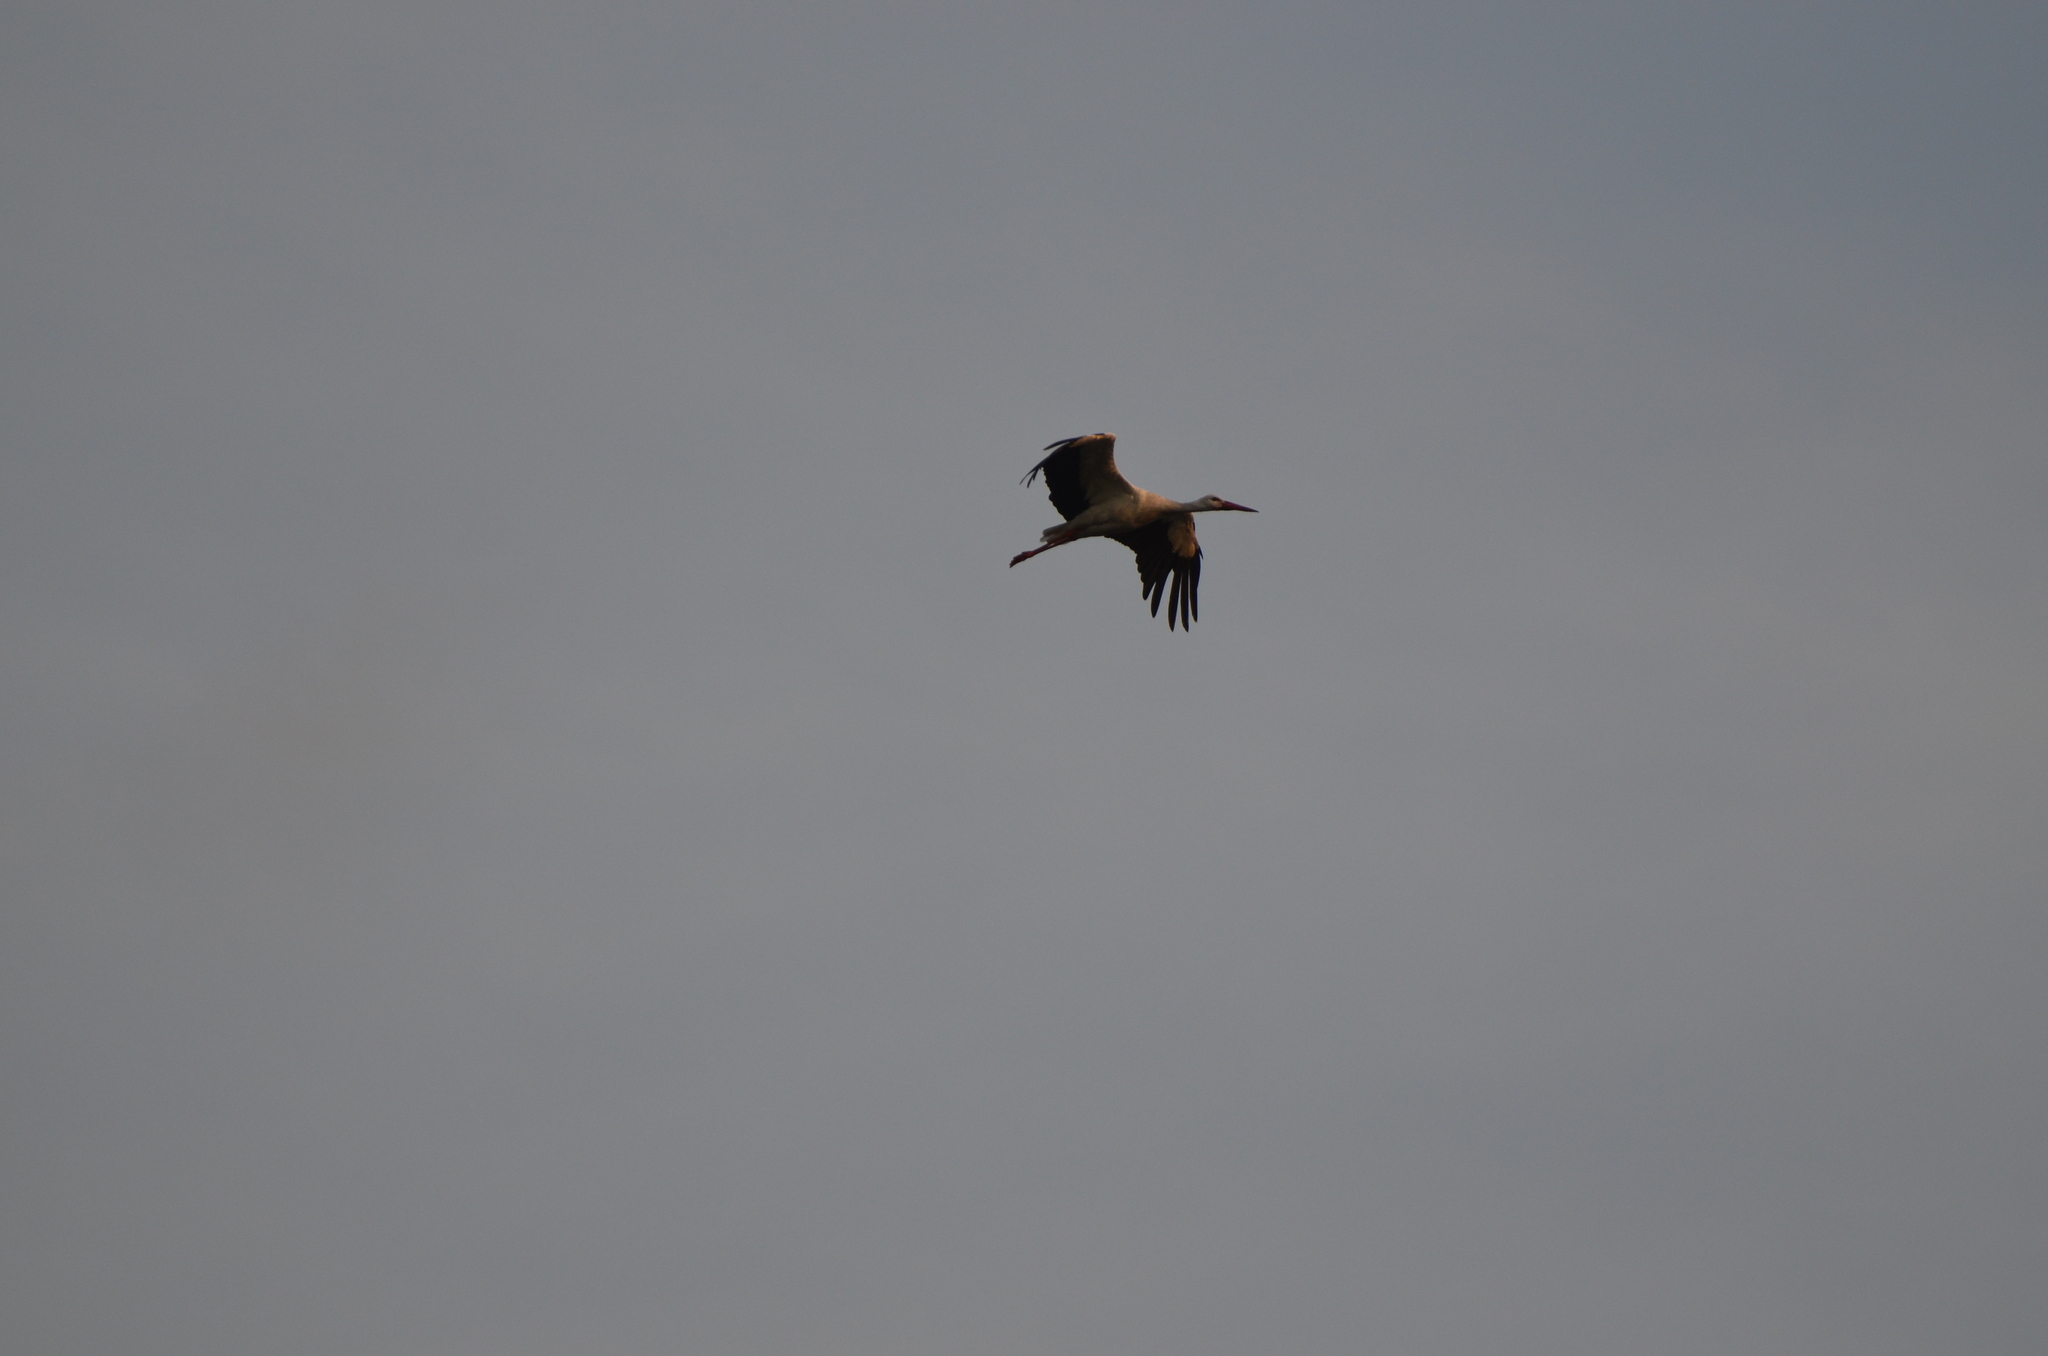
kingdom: Animalia
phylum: Chordata
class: Aves
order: Ciconiiformes
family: Ciconiidae
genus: Ciconia
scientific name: Ciconia ciconia
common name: White stork
